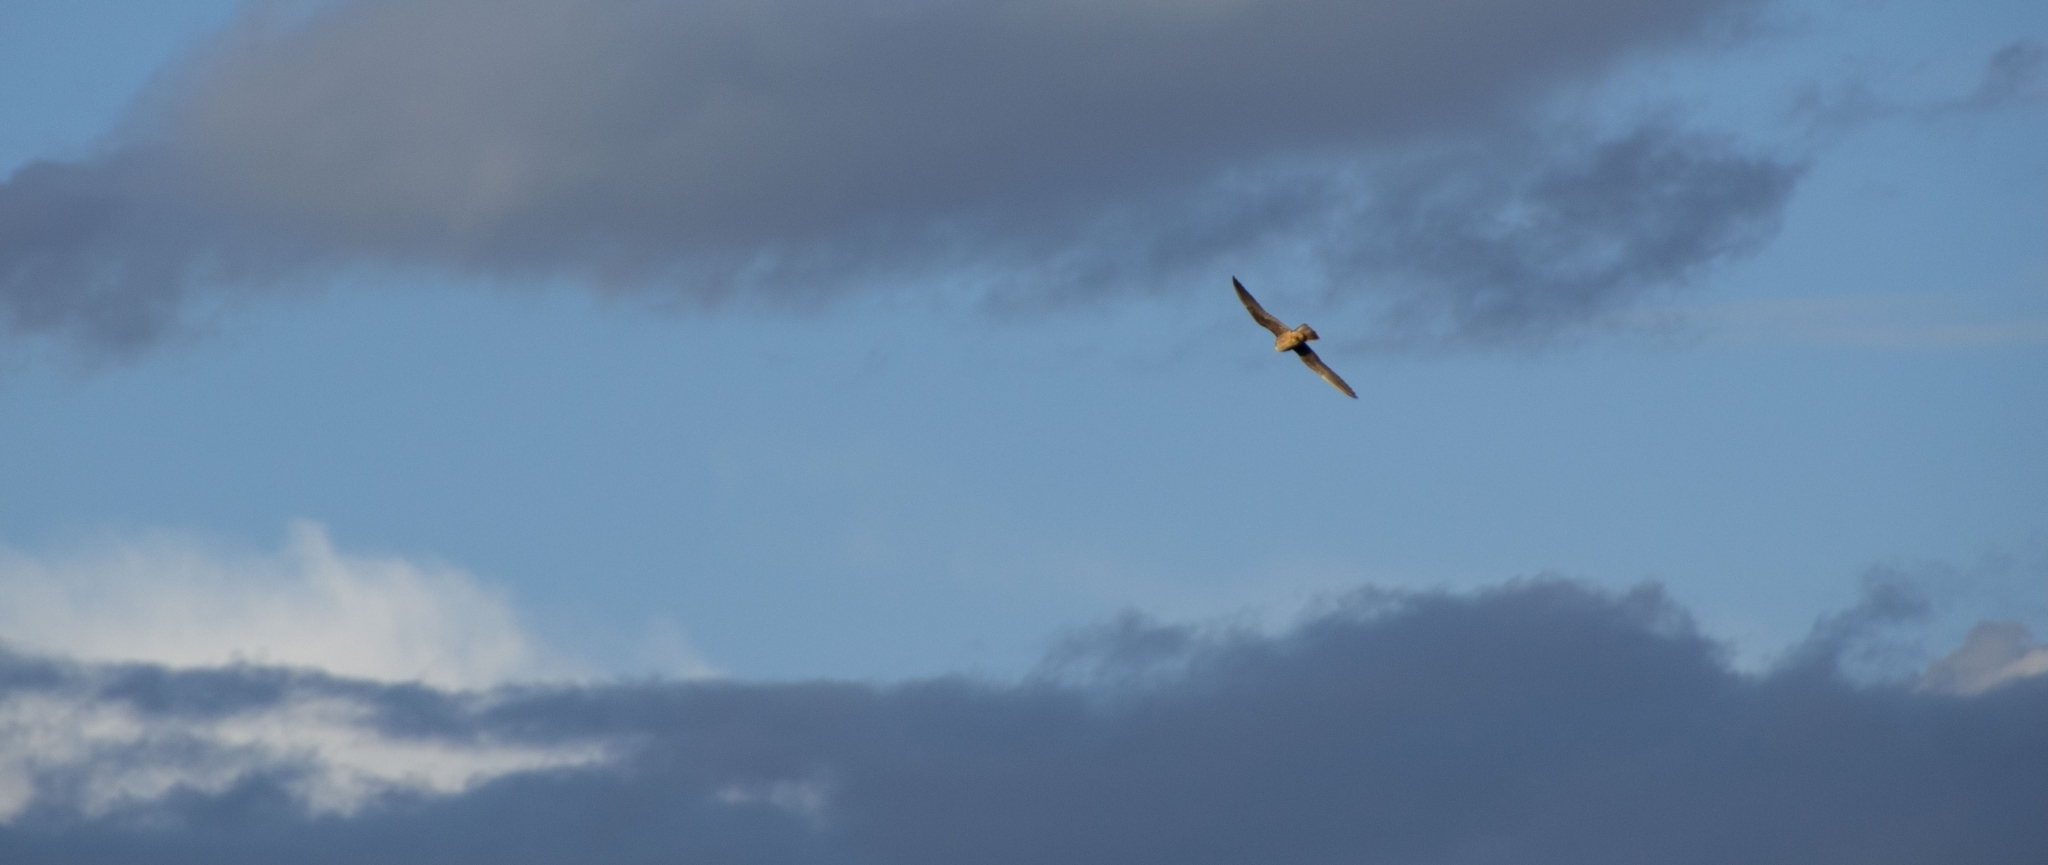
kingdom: Animalia
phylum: Chordata
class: Aves
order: Falconiformes
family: Falconidae
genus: Falco
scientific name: Falco vespertinus
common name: Red-footed falcon
